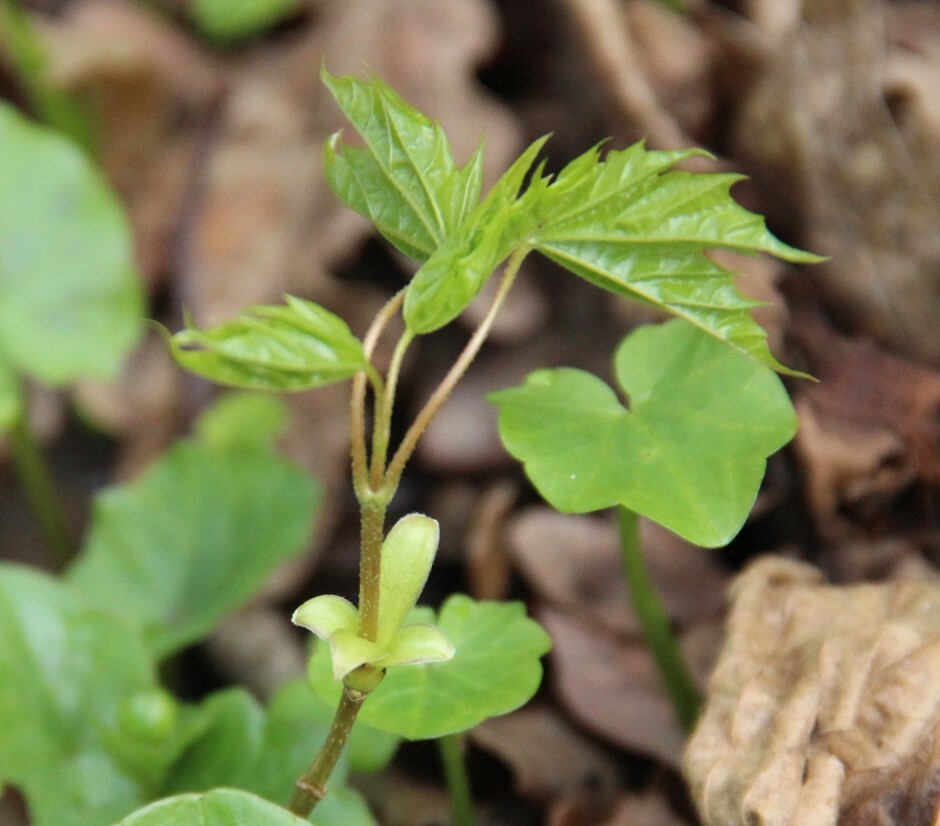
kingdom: Plantae
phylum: Tracheophyta
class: Magnoliopsida
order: Sapindales
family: Sapindaceae
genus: Acer
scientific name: Acer platanoides
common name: Norway maple
